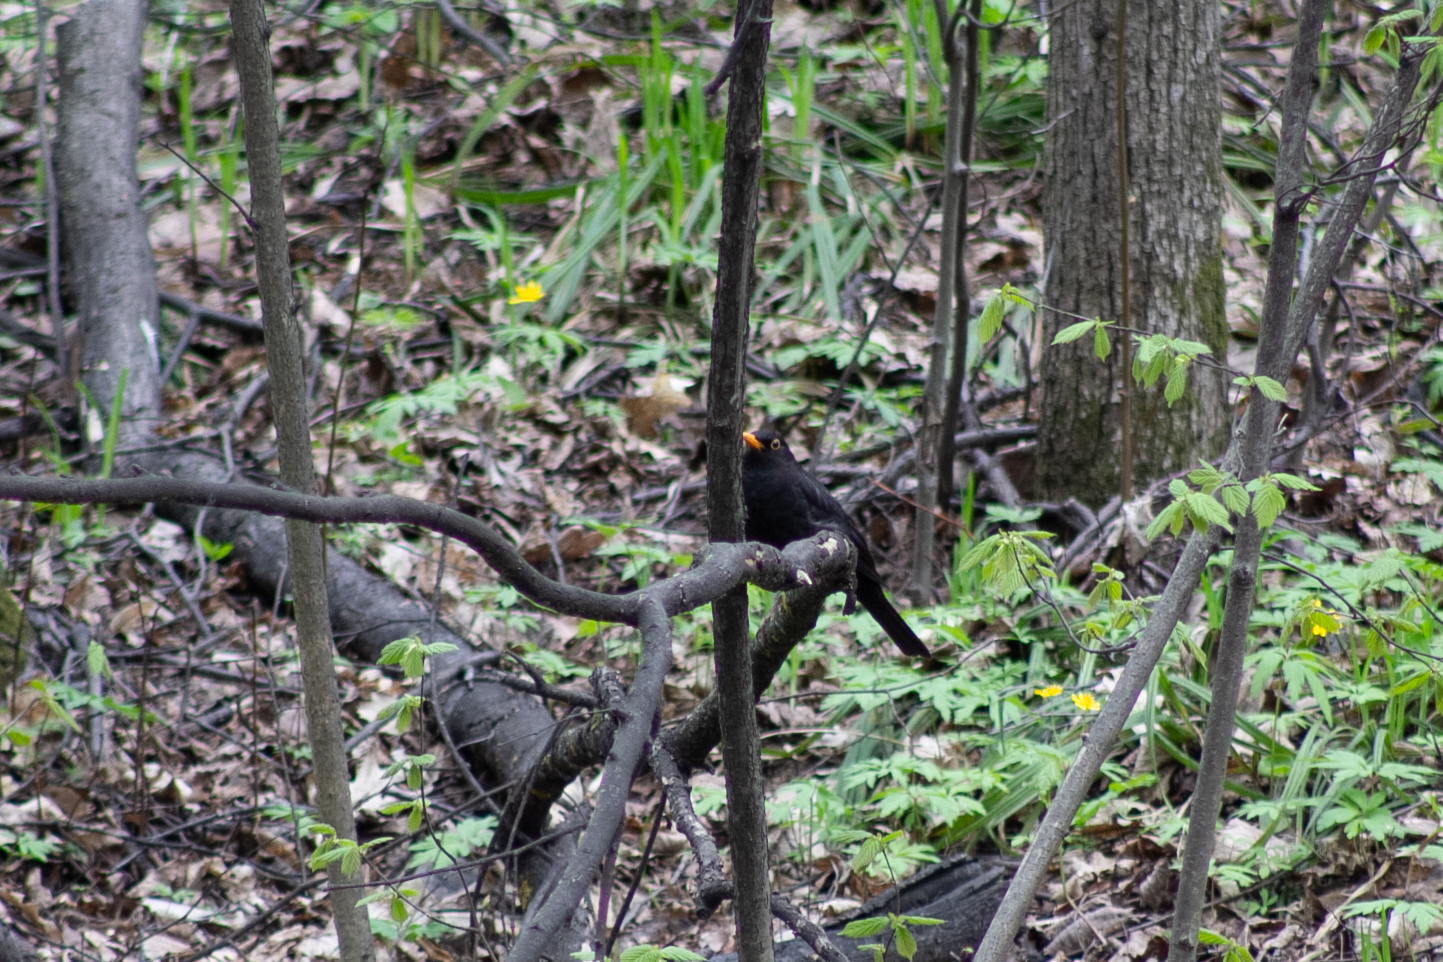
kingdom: Animalia
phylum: Chordata
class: Aves
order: Passeriformes
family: Turdidae
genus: Turdus
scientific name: Turdus merula
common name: Common blackbird
